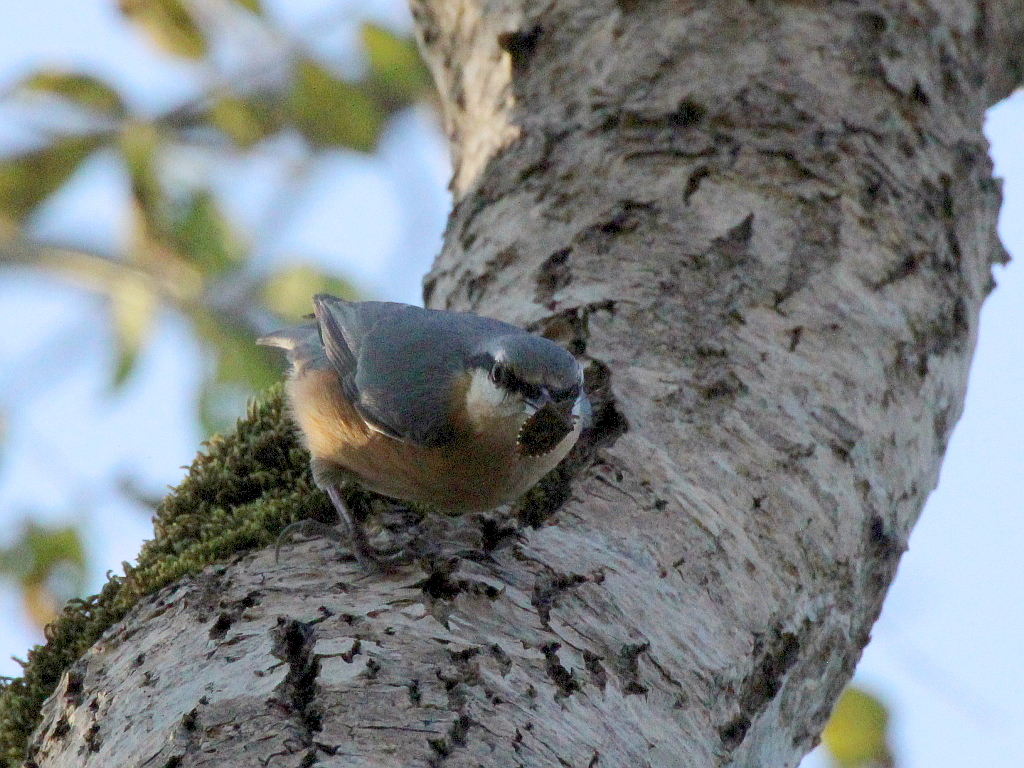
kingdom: Animalia
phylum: Chordata
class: Aves
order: Passeriformes
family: Sittidae
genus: Sitta
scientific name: Sitta europaea
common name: Eurasian nuthatch
